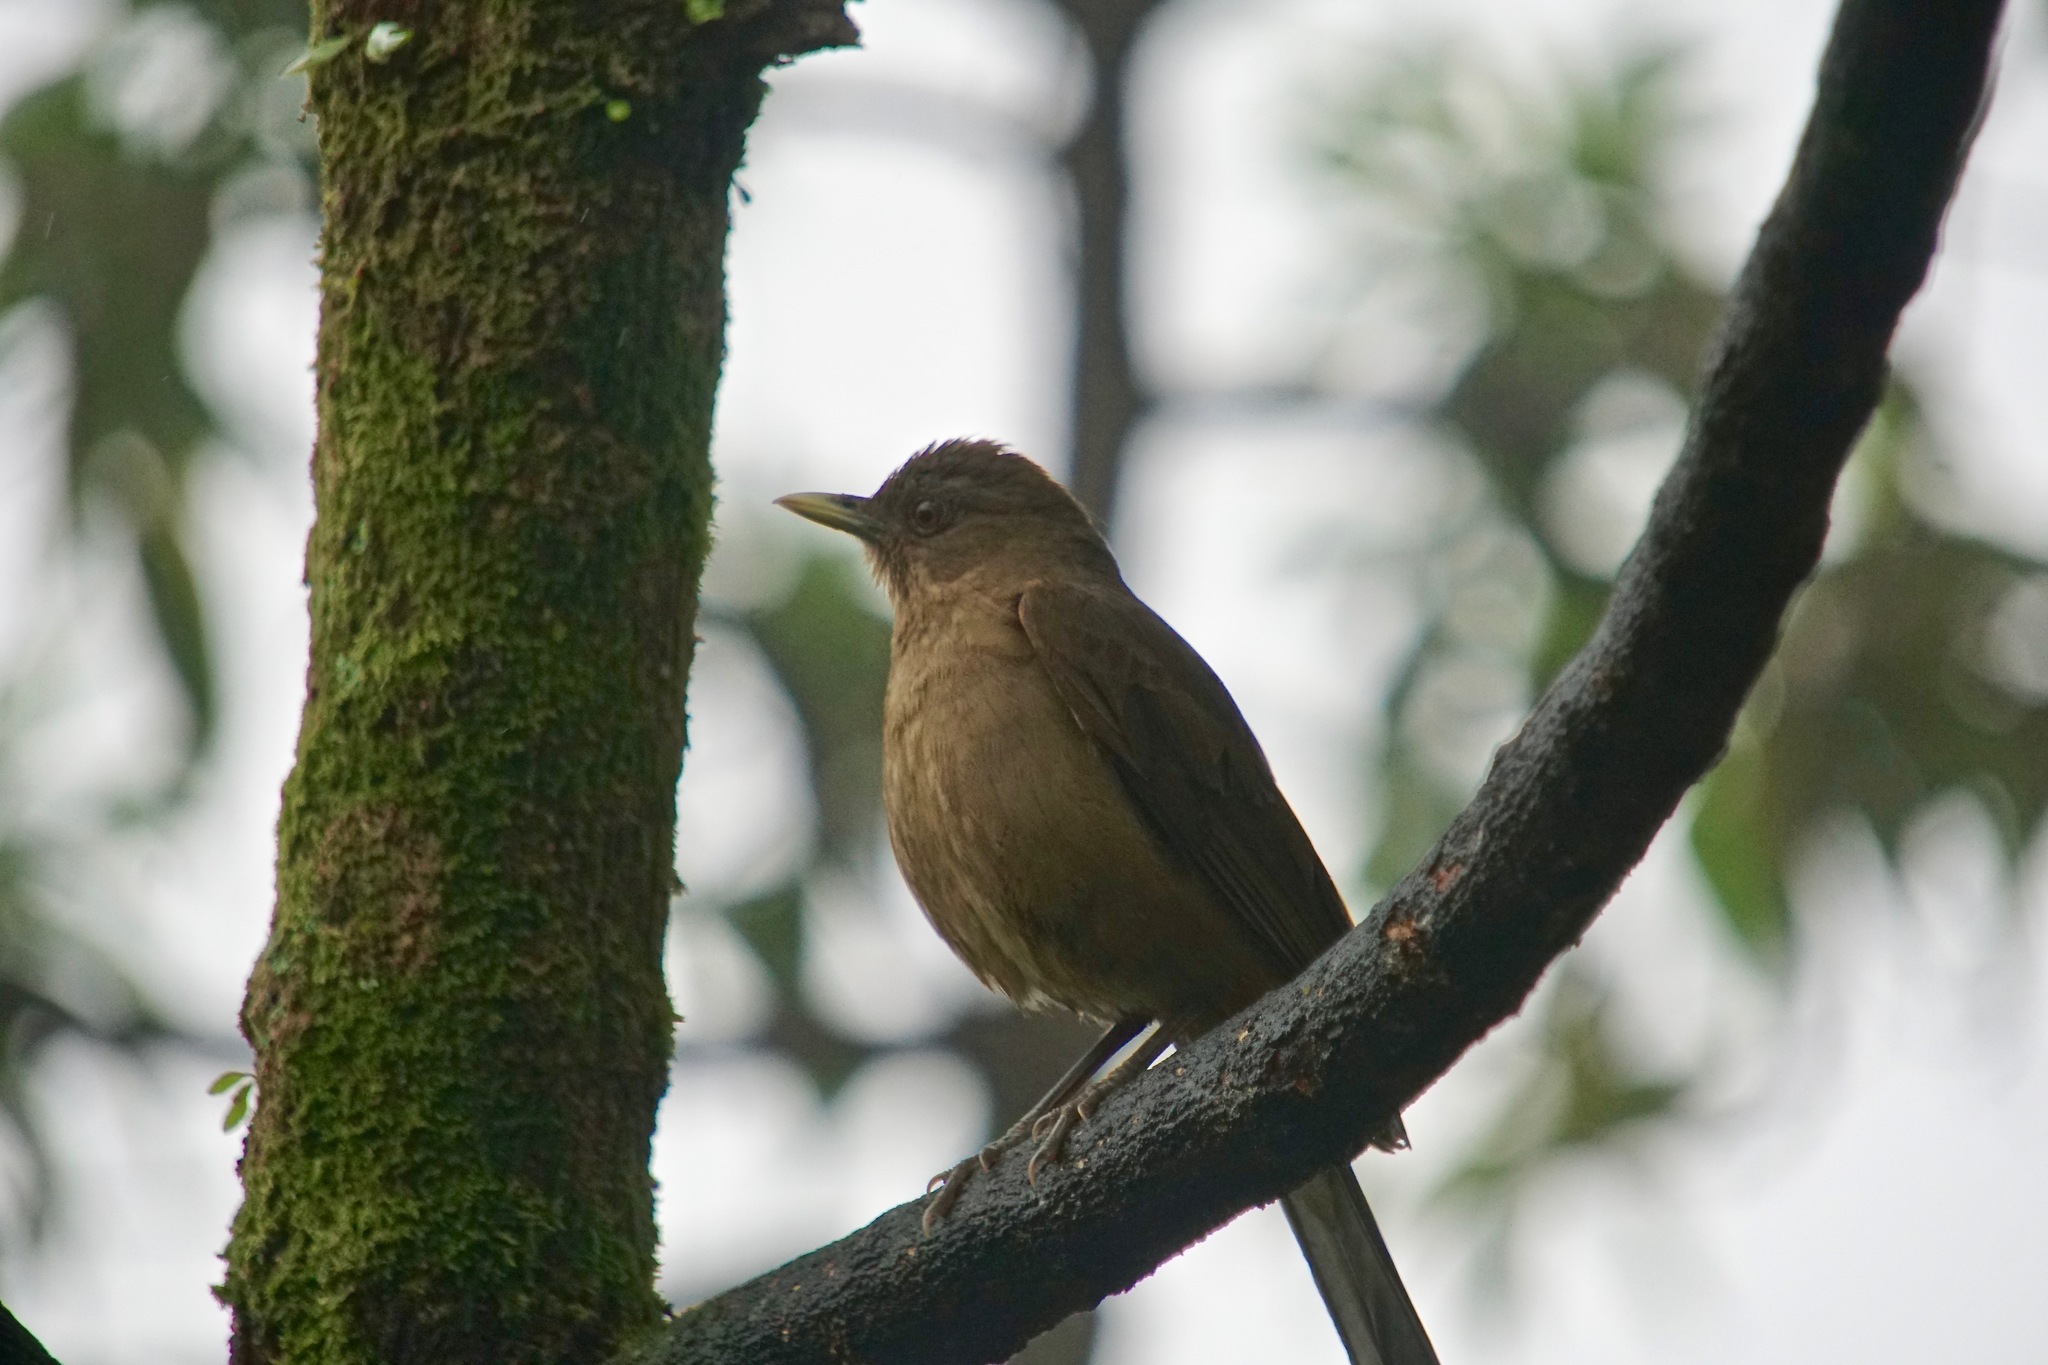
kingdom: Animalia
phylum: Chordata
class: Aves
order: Passeriformes
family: Turdidae
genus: Turdus
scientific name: Turdus grayi
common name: Clay-colored thrush
